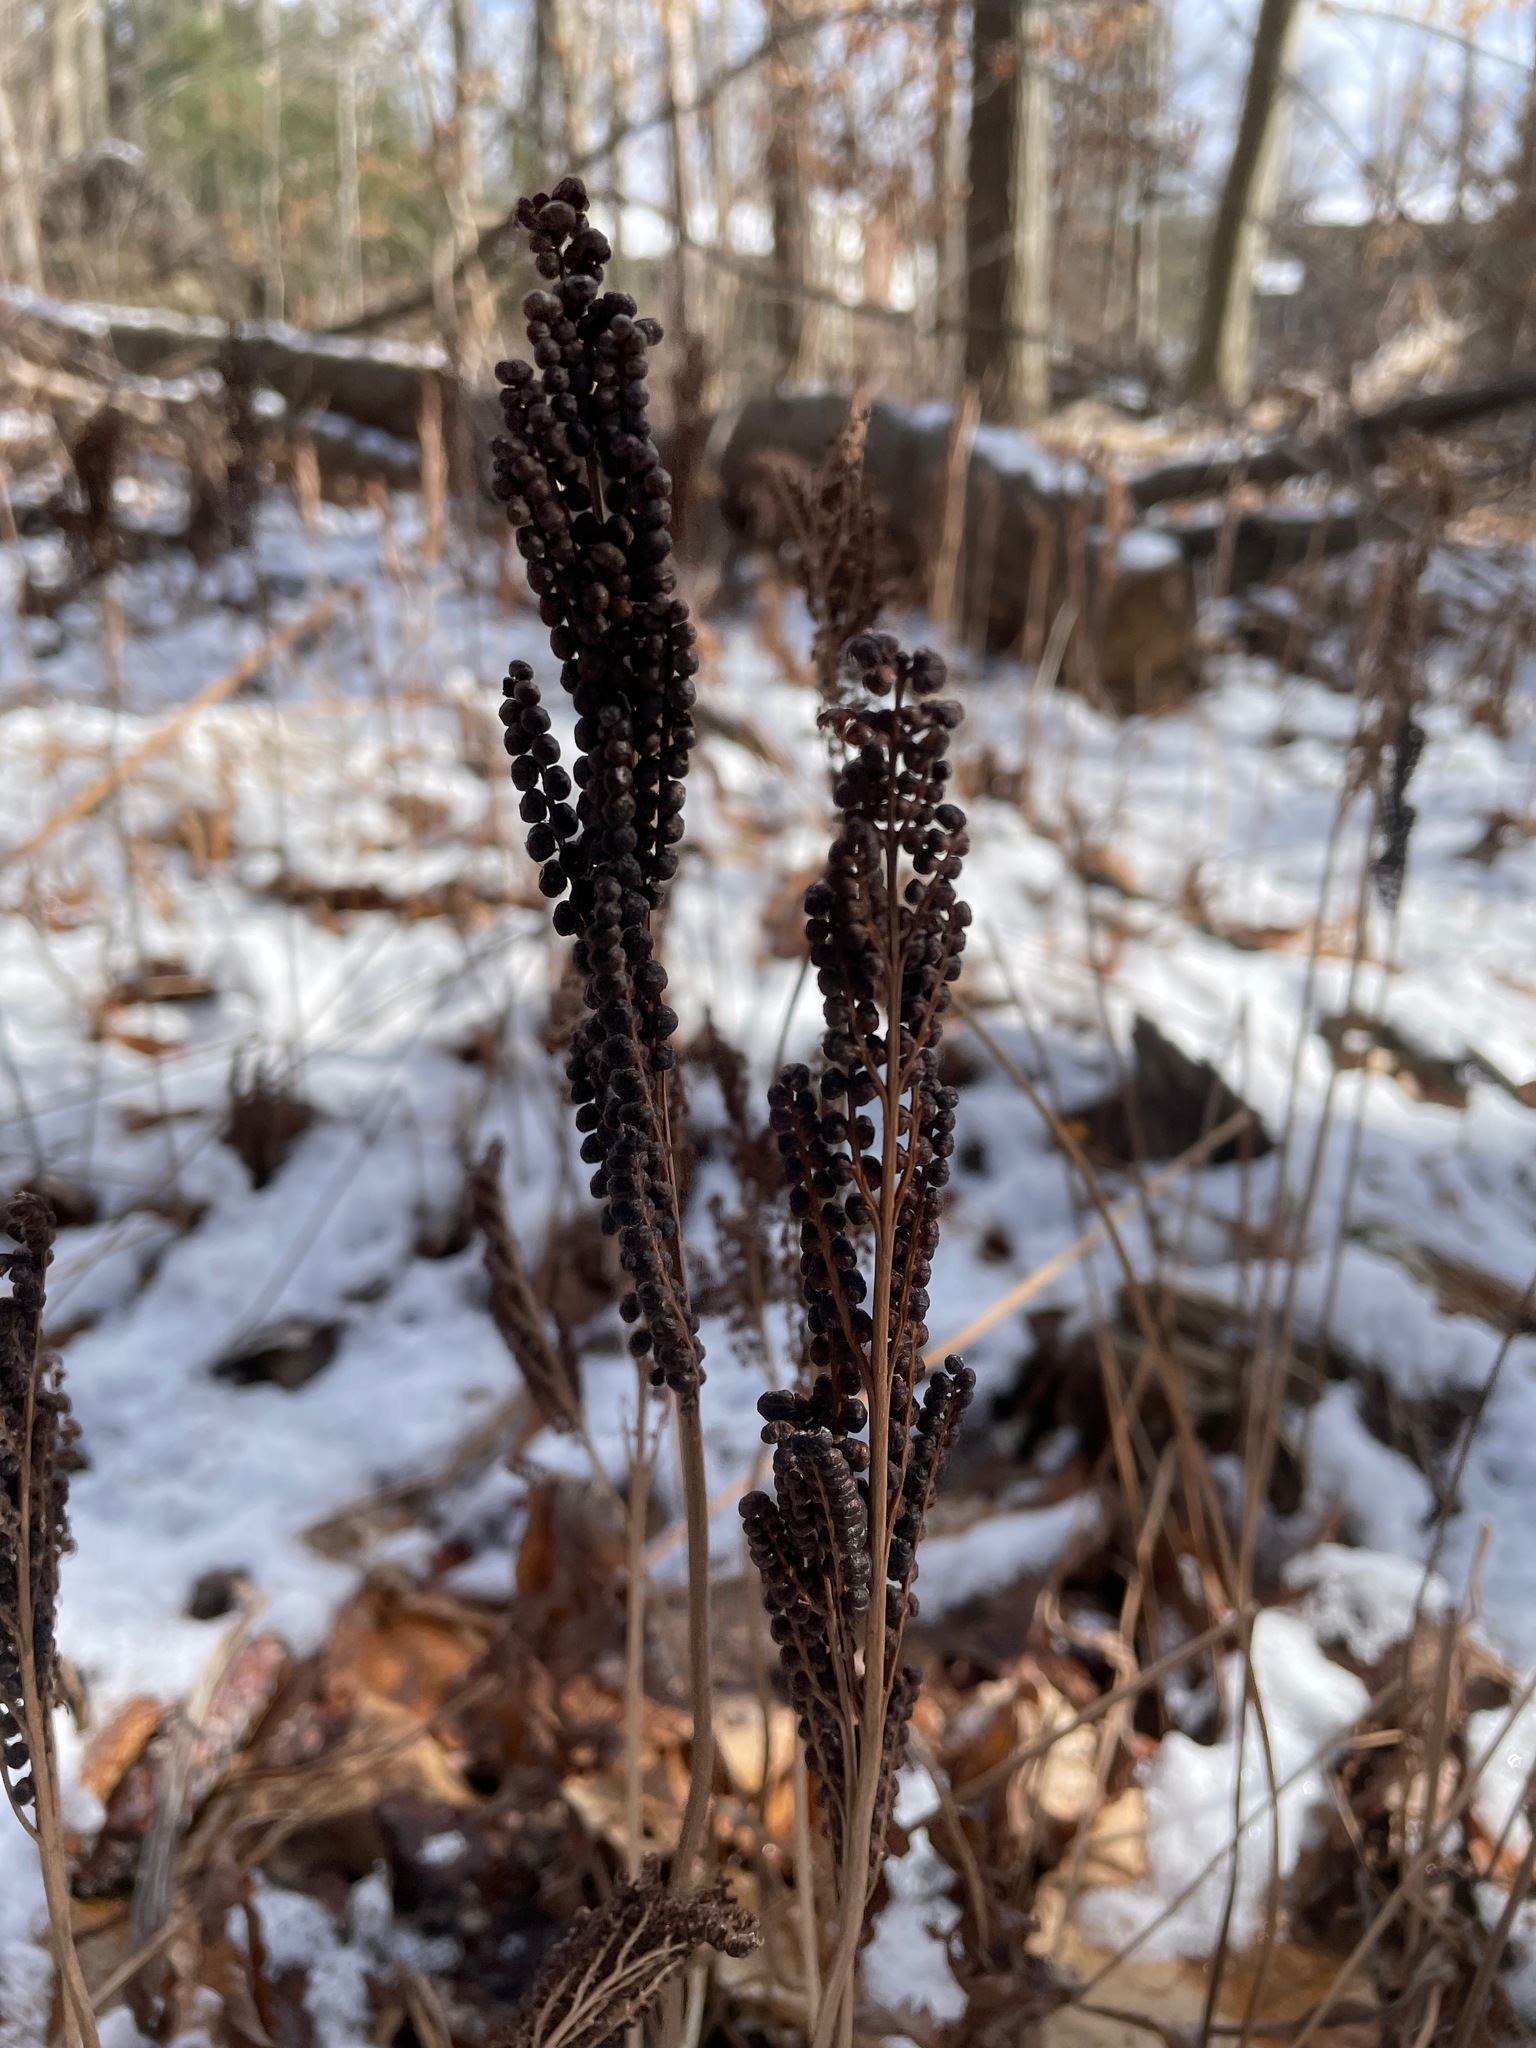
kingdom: Plantae
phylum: Tracheophyta
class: Polypodiopsida
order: Polypodiales
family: Onocleaceae
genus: Onoclea
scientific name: Onoclea sensibilis
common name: Sensitive fern
